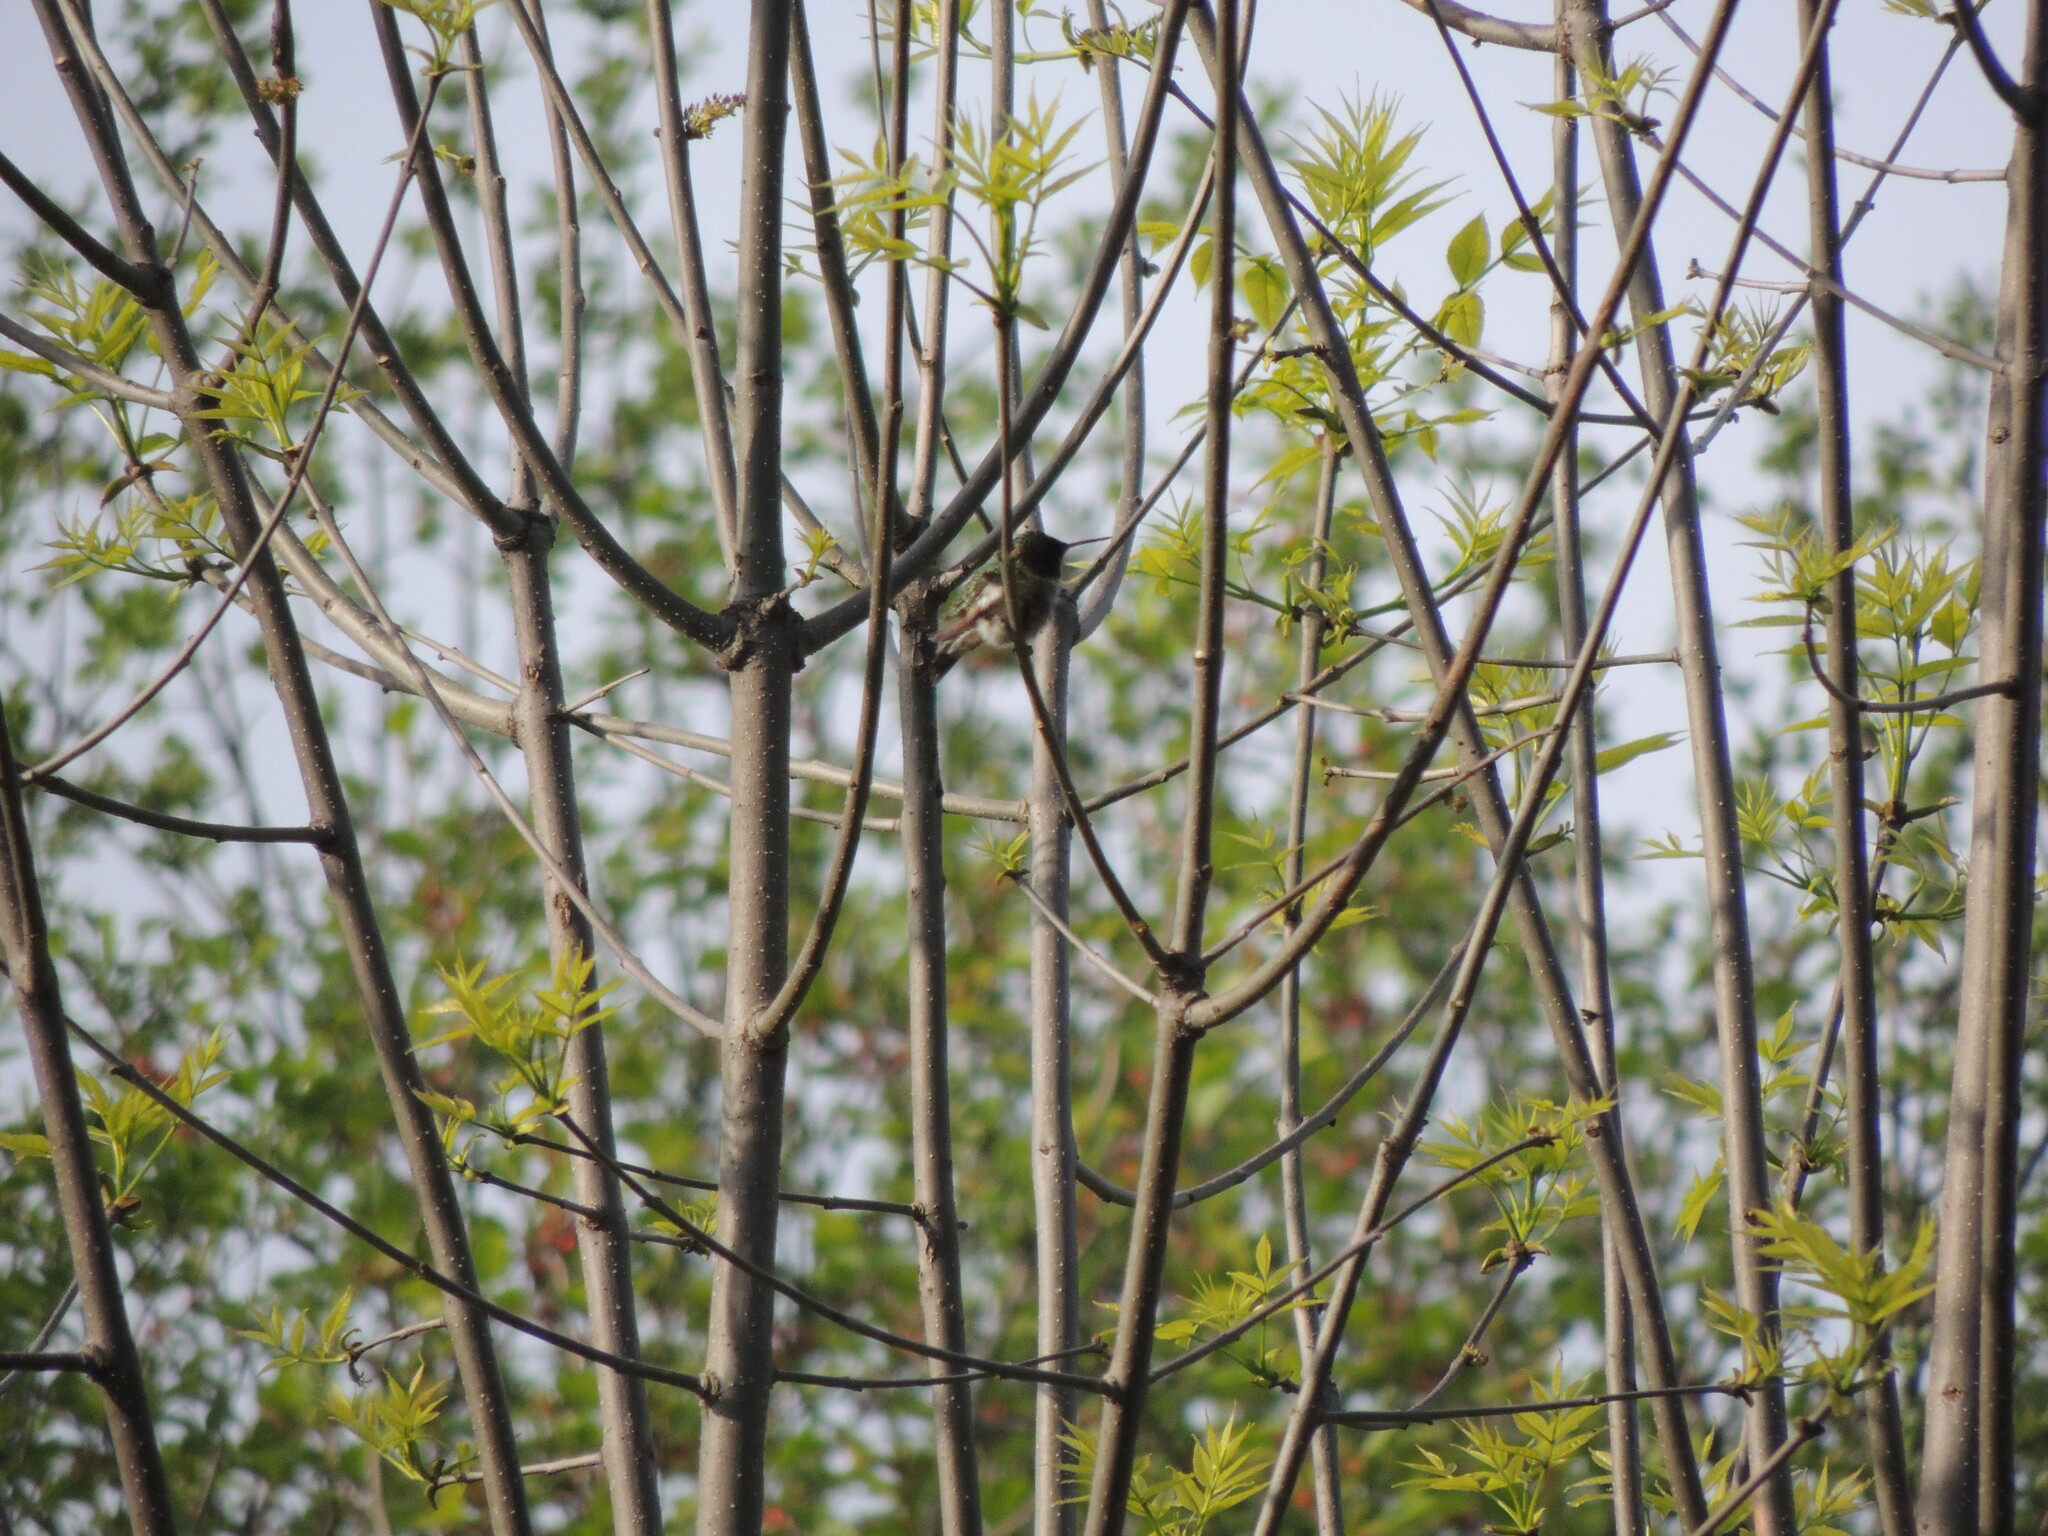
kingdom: Animalia
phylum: Chordata
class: Aves
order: Apodiformes
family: Trochilidae
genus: Archilochus
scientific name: Archilochus colubris
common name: Ruby-throated hummingbird
